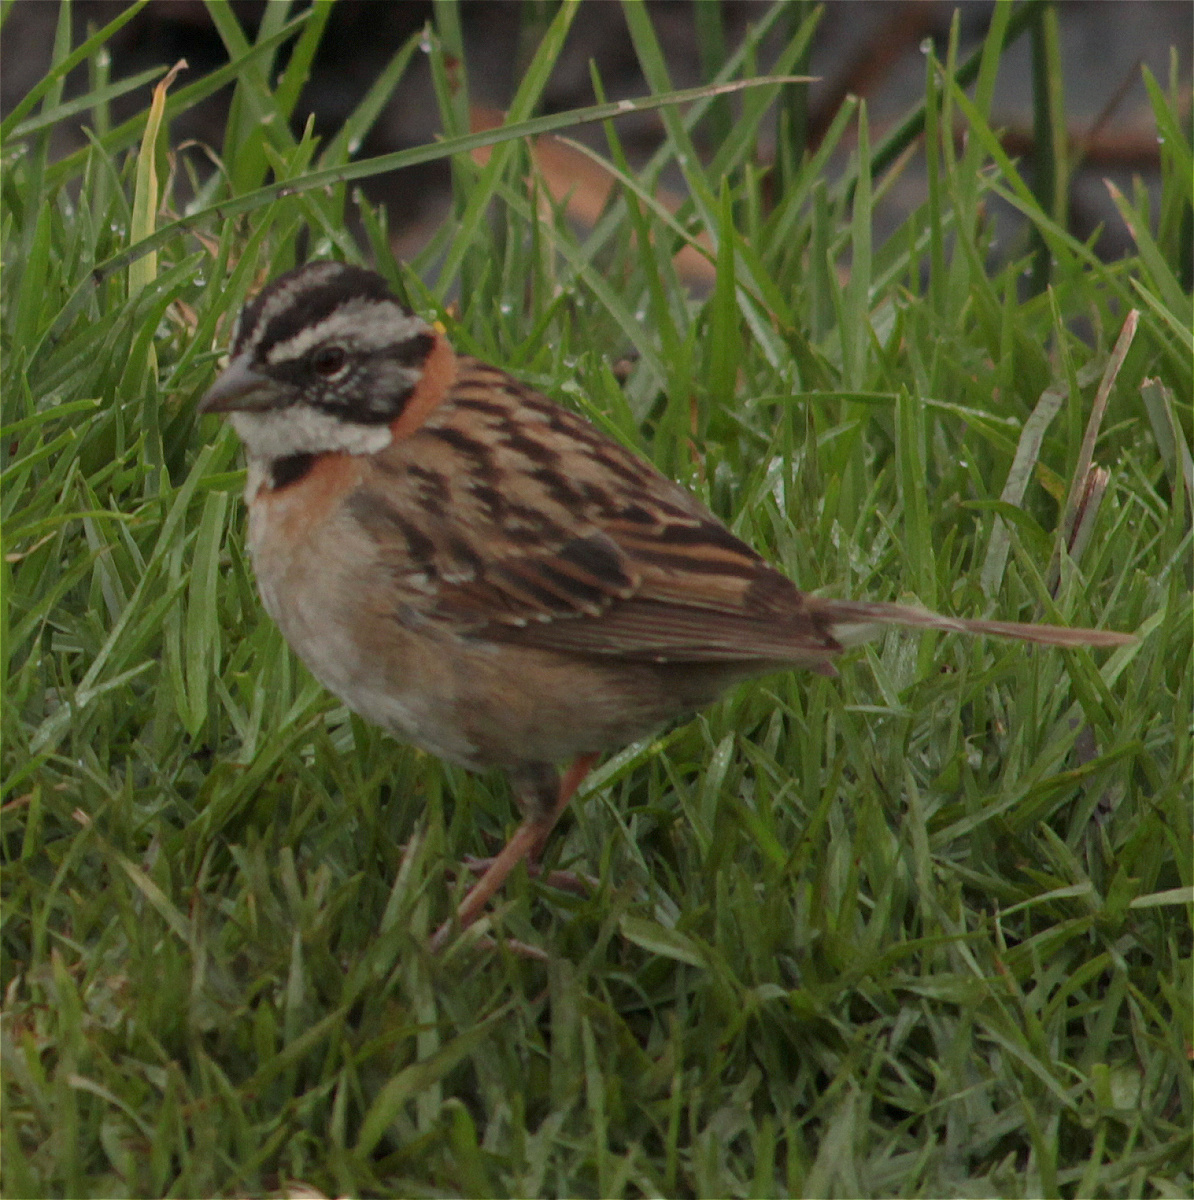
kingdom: Animalia
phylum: Chordata
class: Aves
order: Passeriformes
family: Passerellidae
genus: Zonotrichia
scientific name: Zonotrichia capensis
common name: Rufous-collared sparrow
